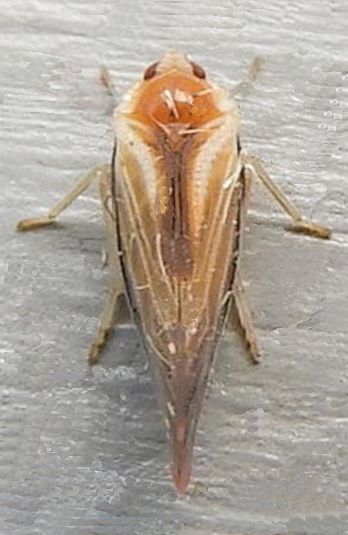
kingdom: Animalia
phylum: Arthropoda
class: Insecta
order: Hemiptera
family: Derbidae
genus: Omolicna
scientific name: Omolicna uhleri
